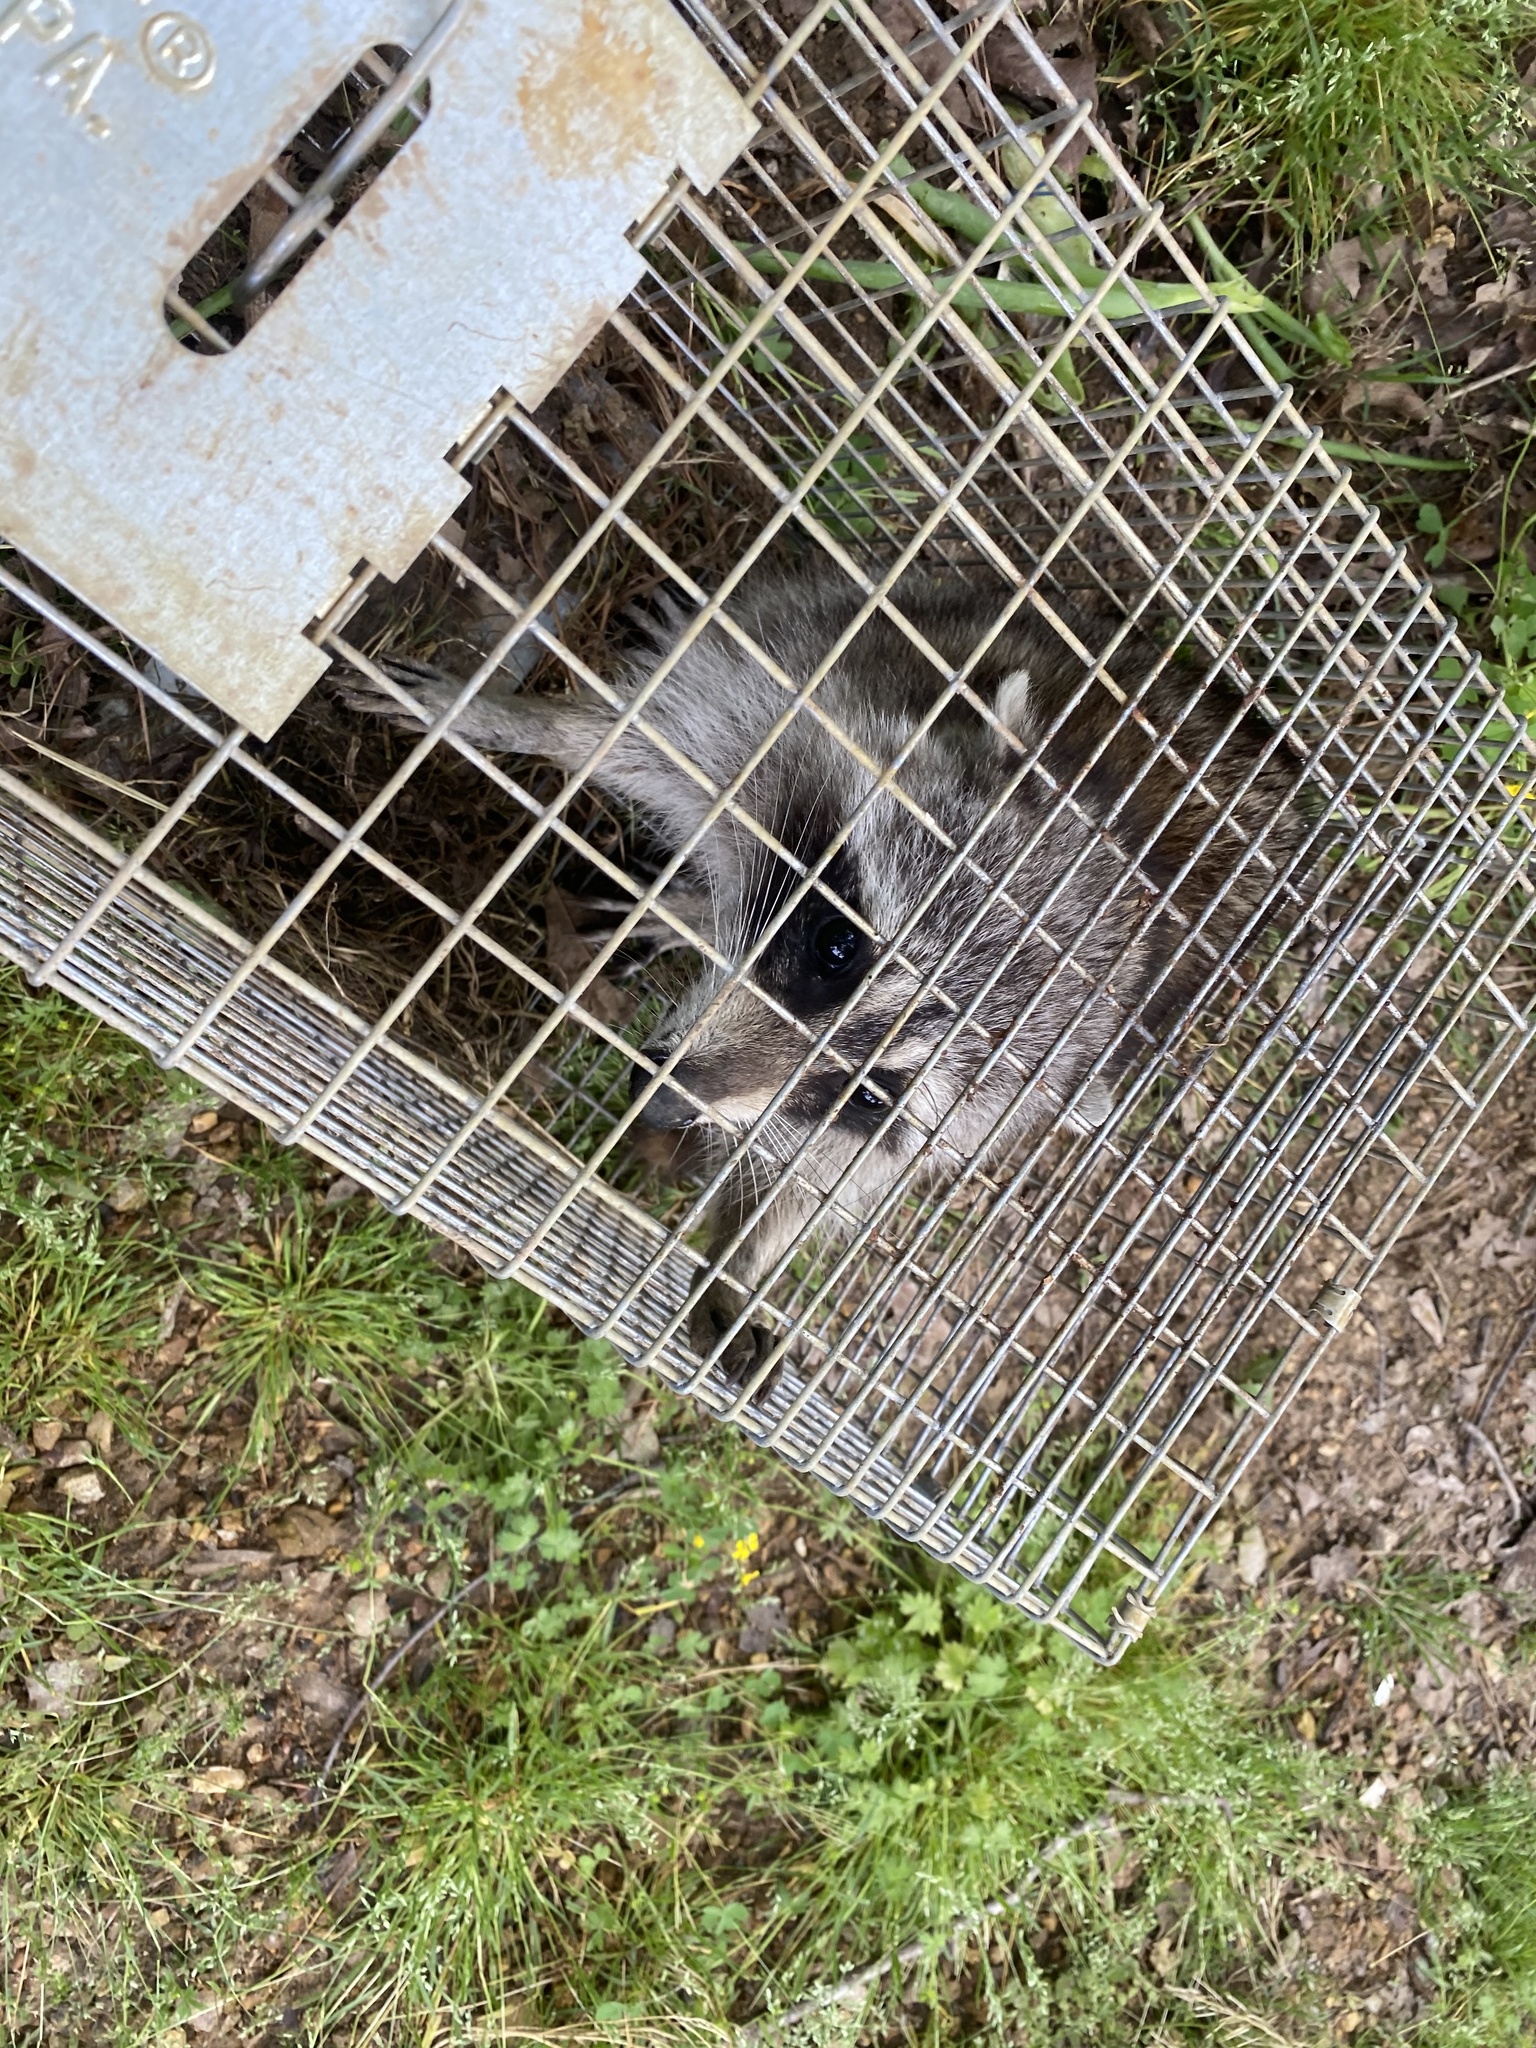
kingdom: Animalia
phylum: Chordata
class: Mammalia
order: Carnivora
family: Procyonidae
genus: Procyon
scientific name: Procyon lotor
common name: Raccoon
